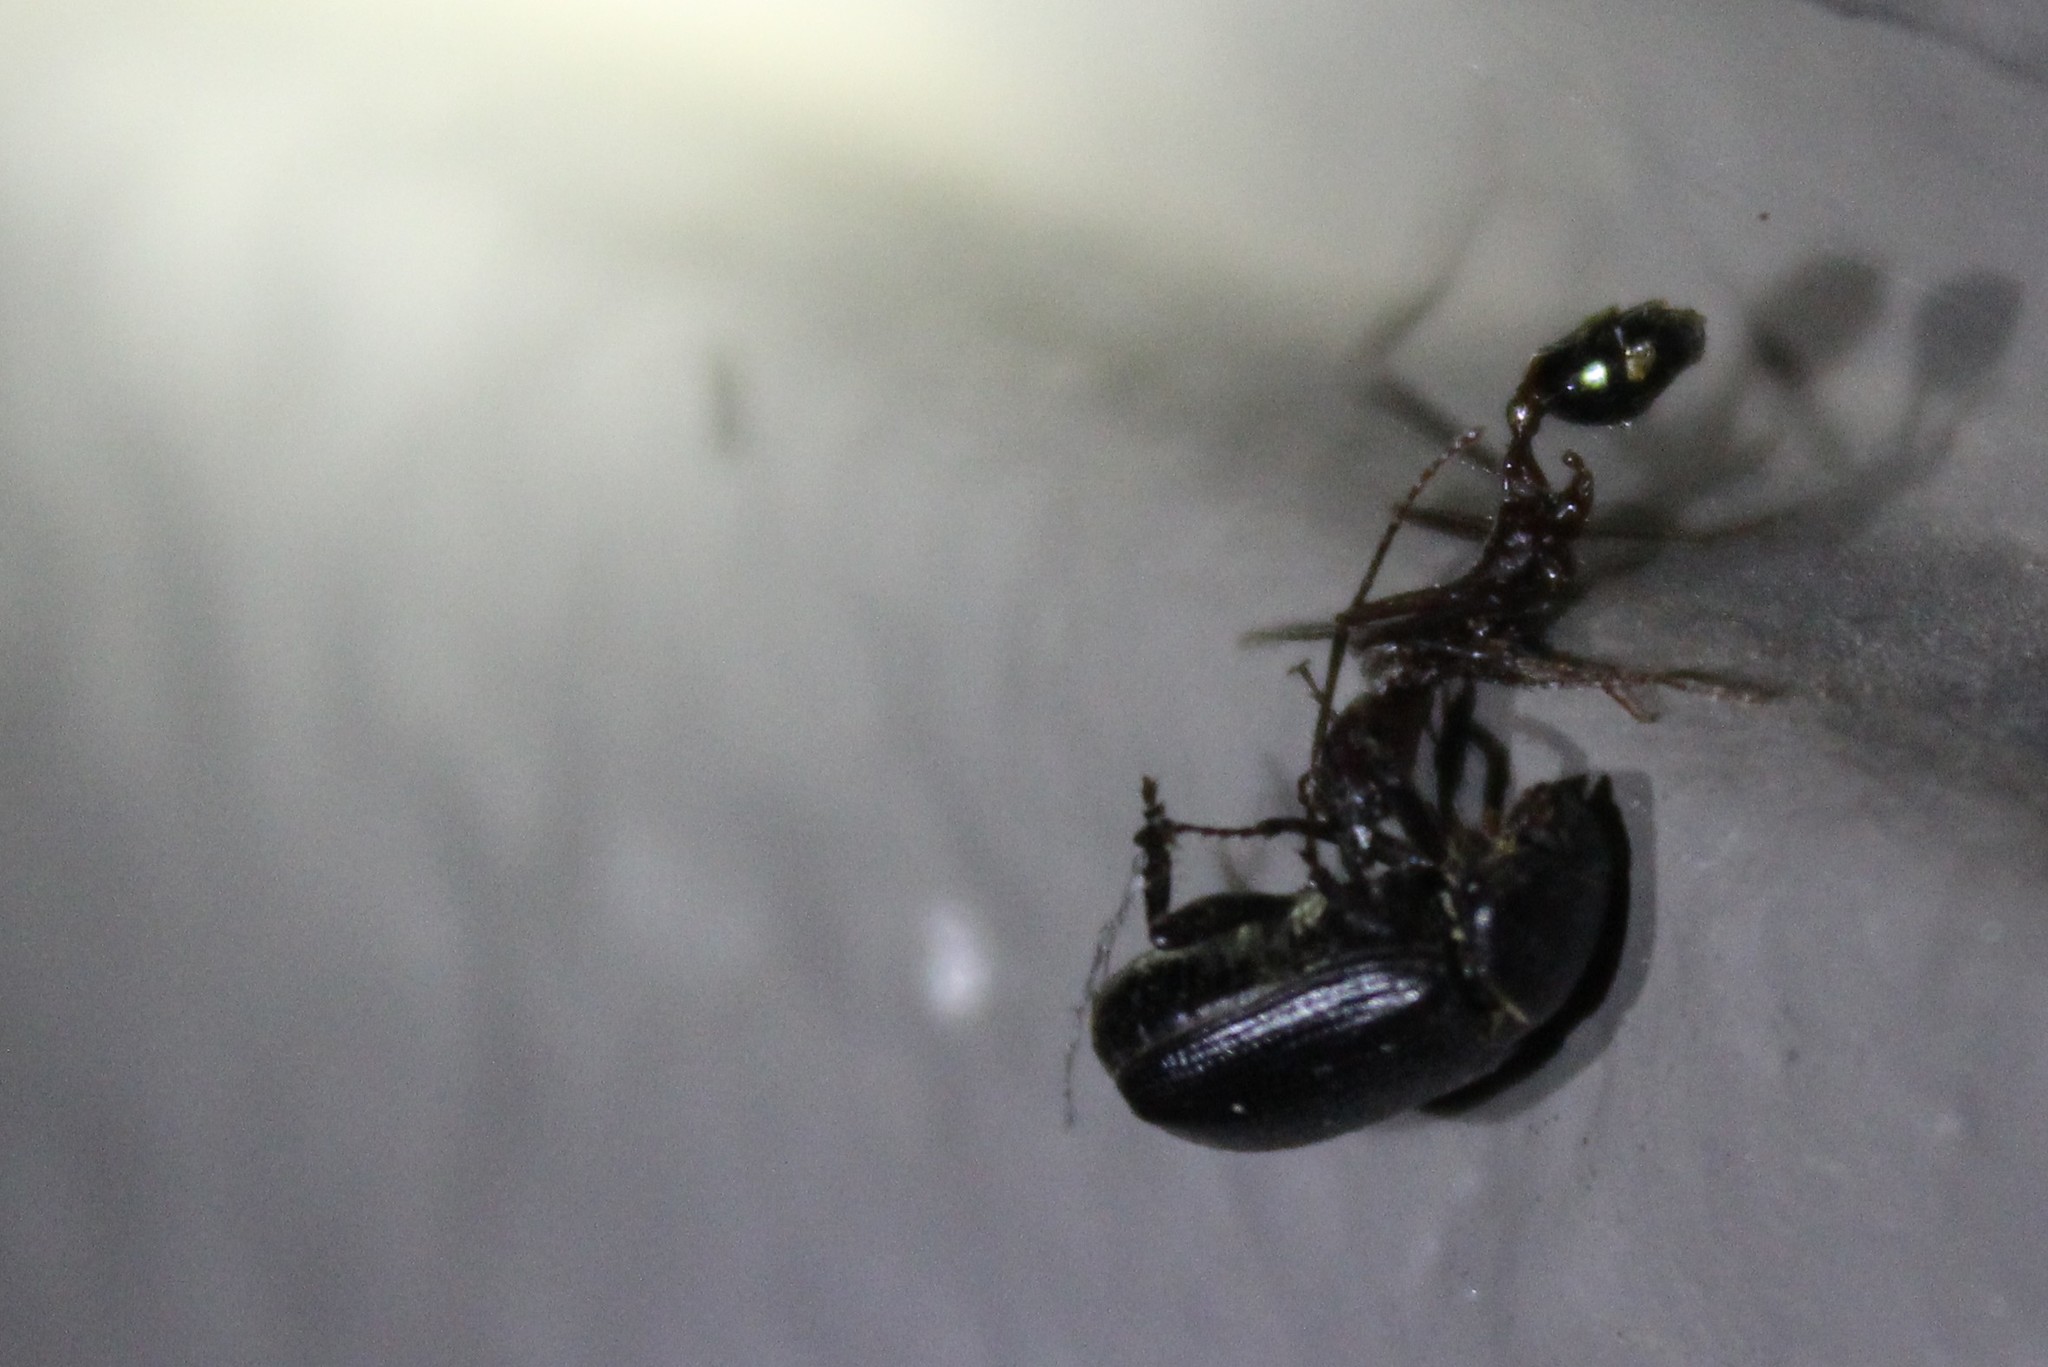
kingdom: Animalia
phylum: Arthropoda
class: Insecta
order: Hymenoptera
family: Formicidae
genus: Novomessor
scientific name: Novomessor cockerelli
